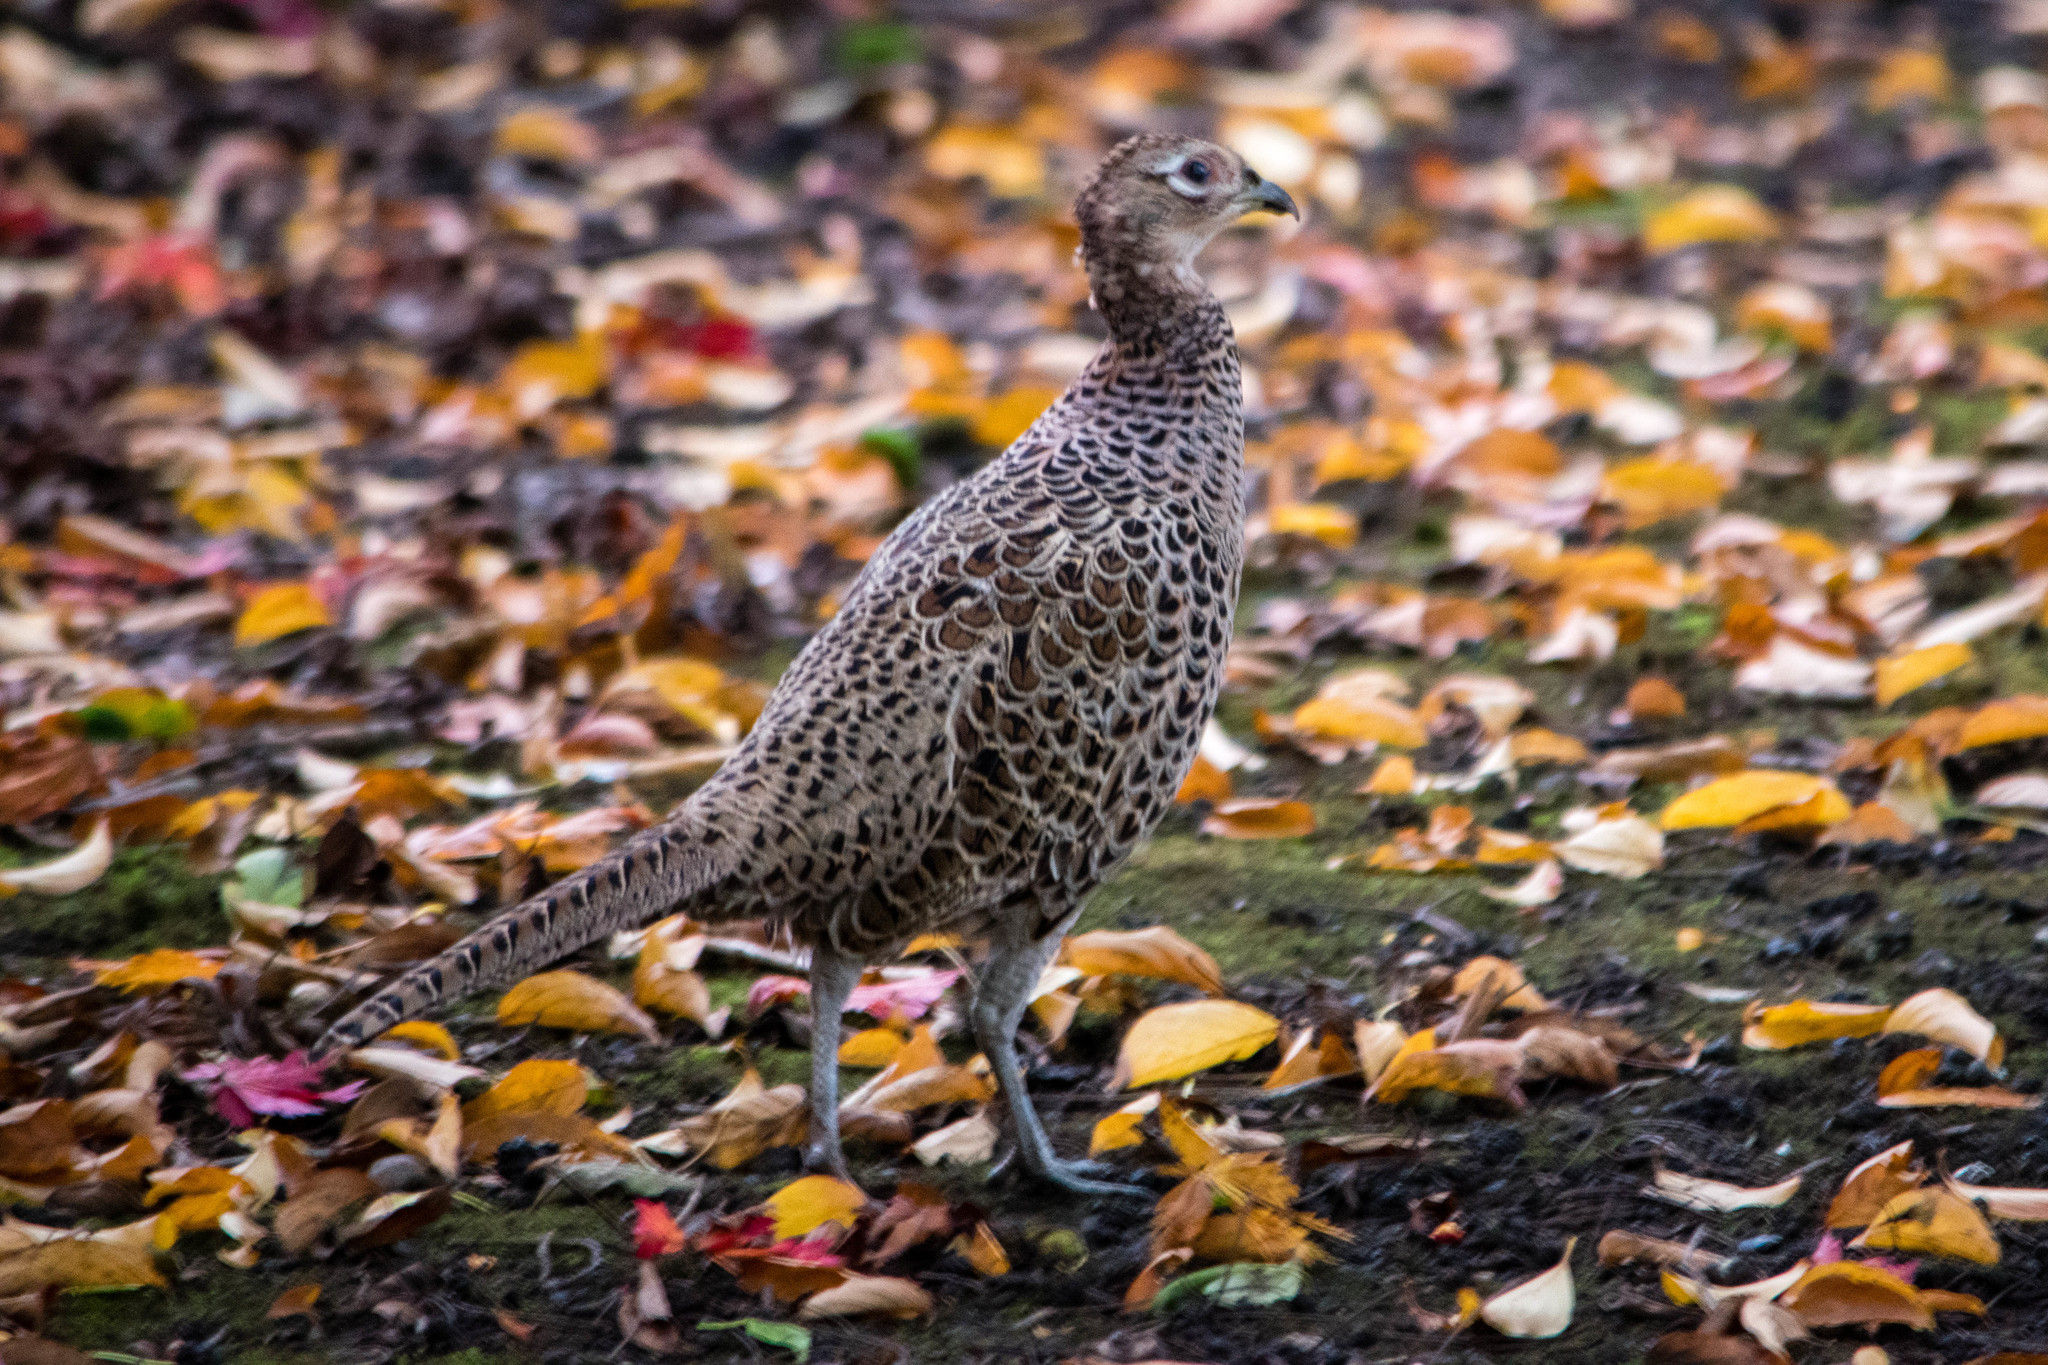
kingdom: Animalia
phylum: Chordata
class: Aves
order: Galliformes
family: Phasianidae
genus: Phasianus
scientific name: Phasianus colchicus
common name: Common pheasant
